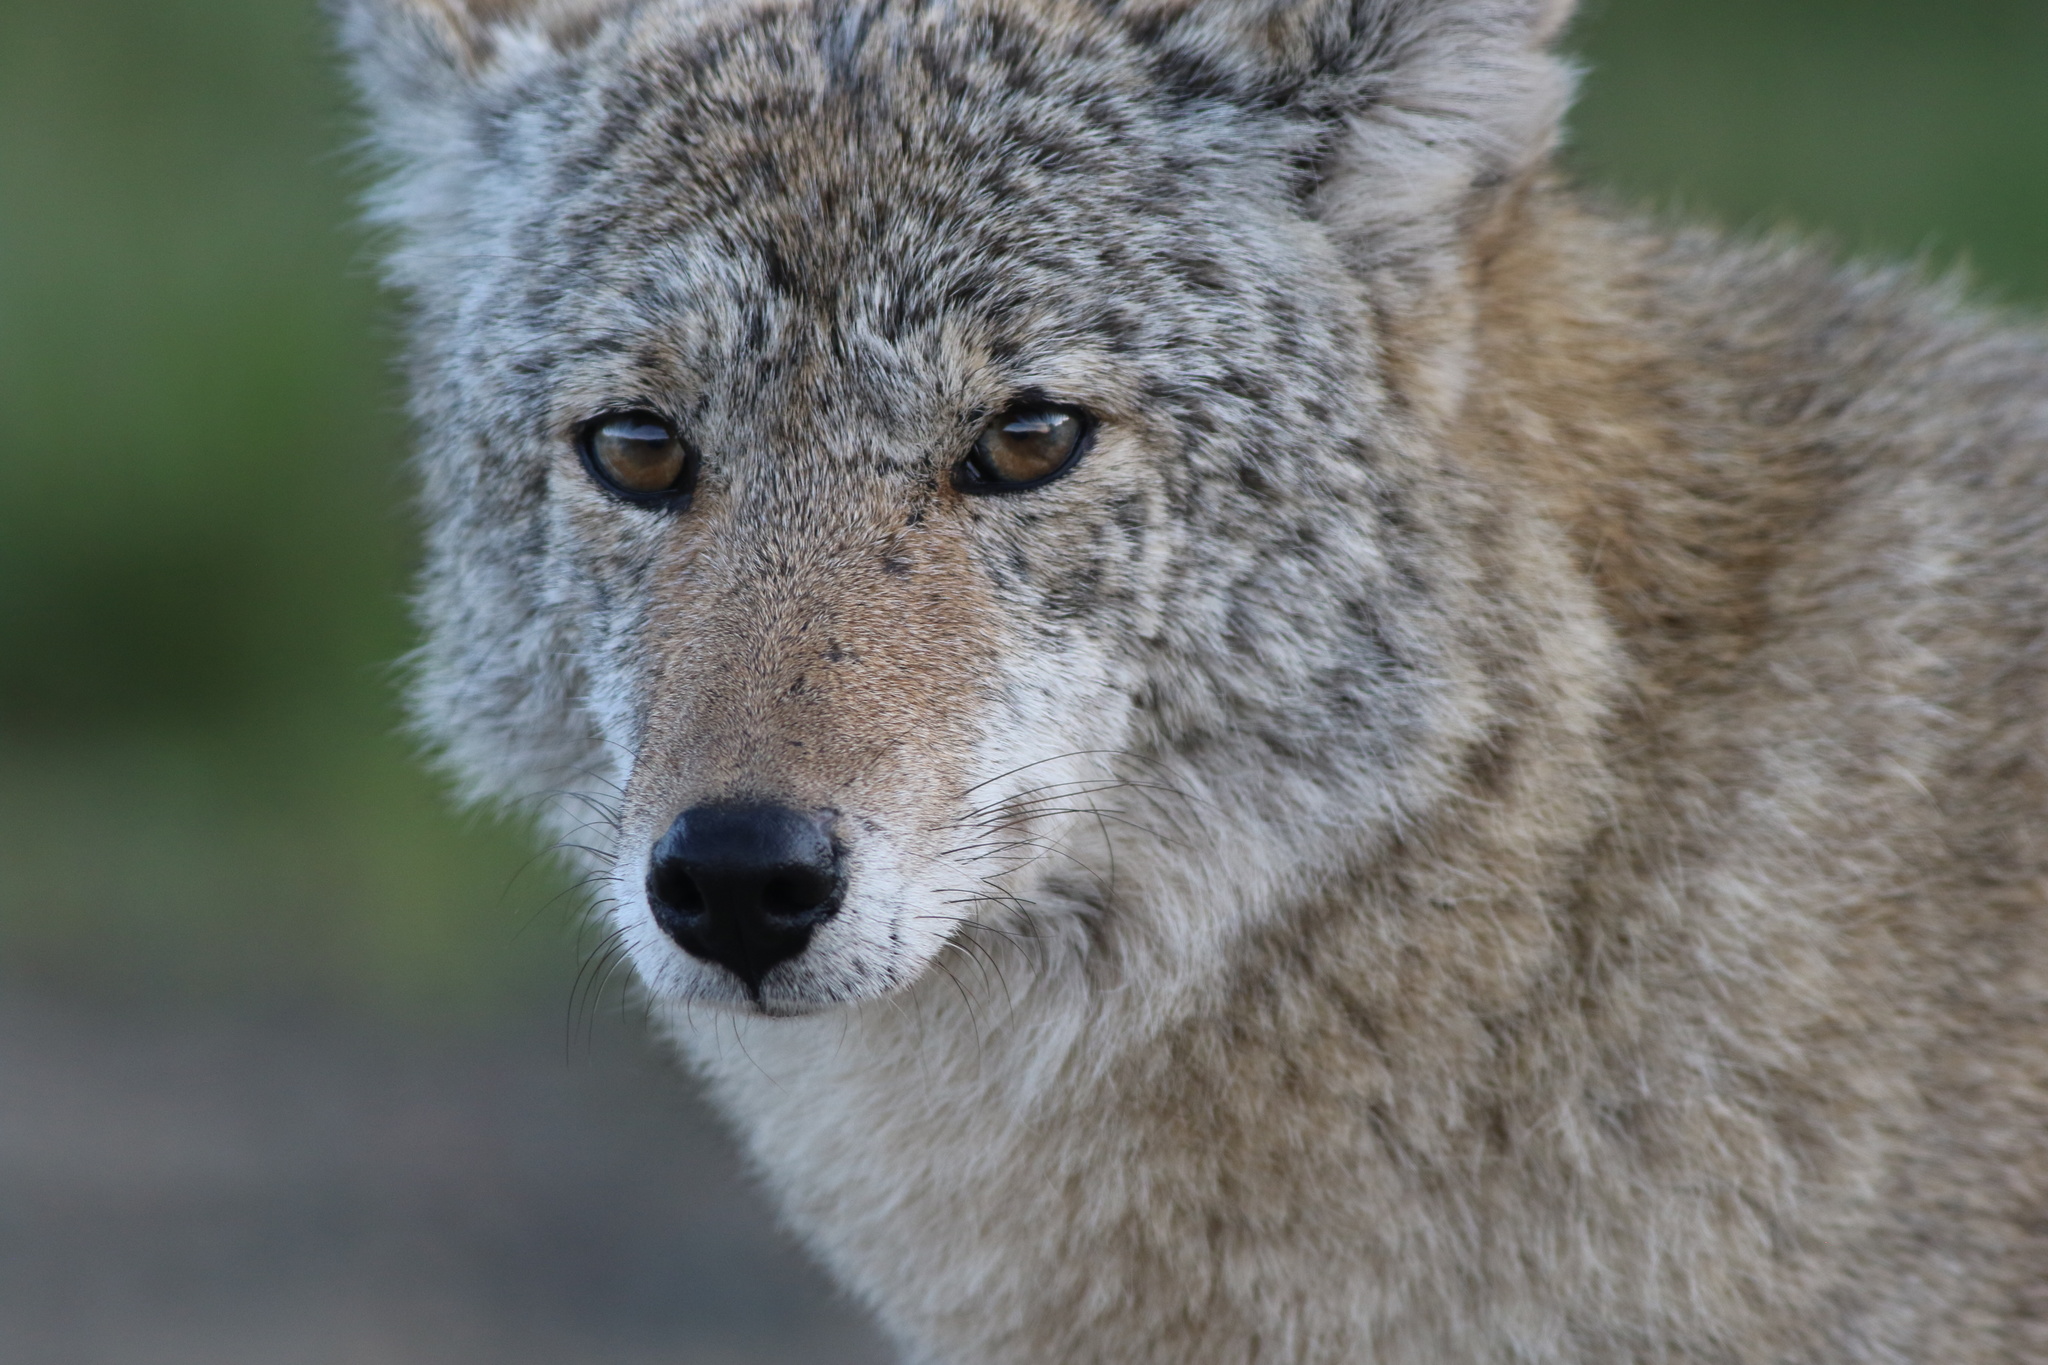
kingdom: Animalia
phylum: Chordata
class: Mammalia
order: Carnivora
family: Canidae
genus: Canis
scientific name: Canis latrans
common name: Coyote
